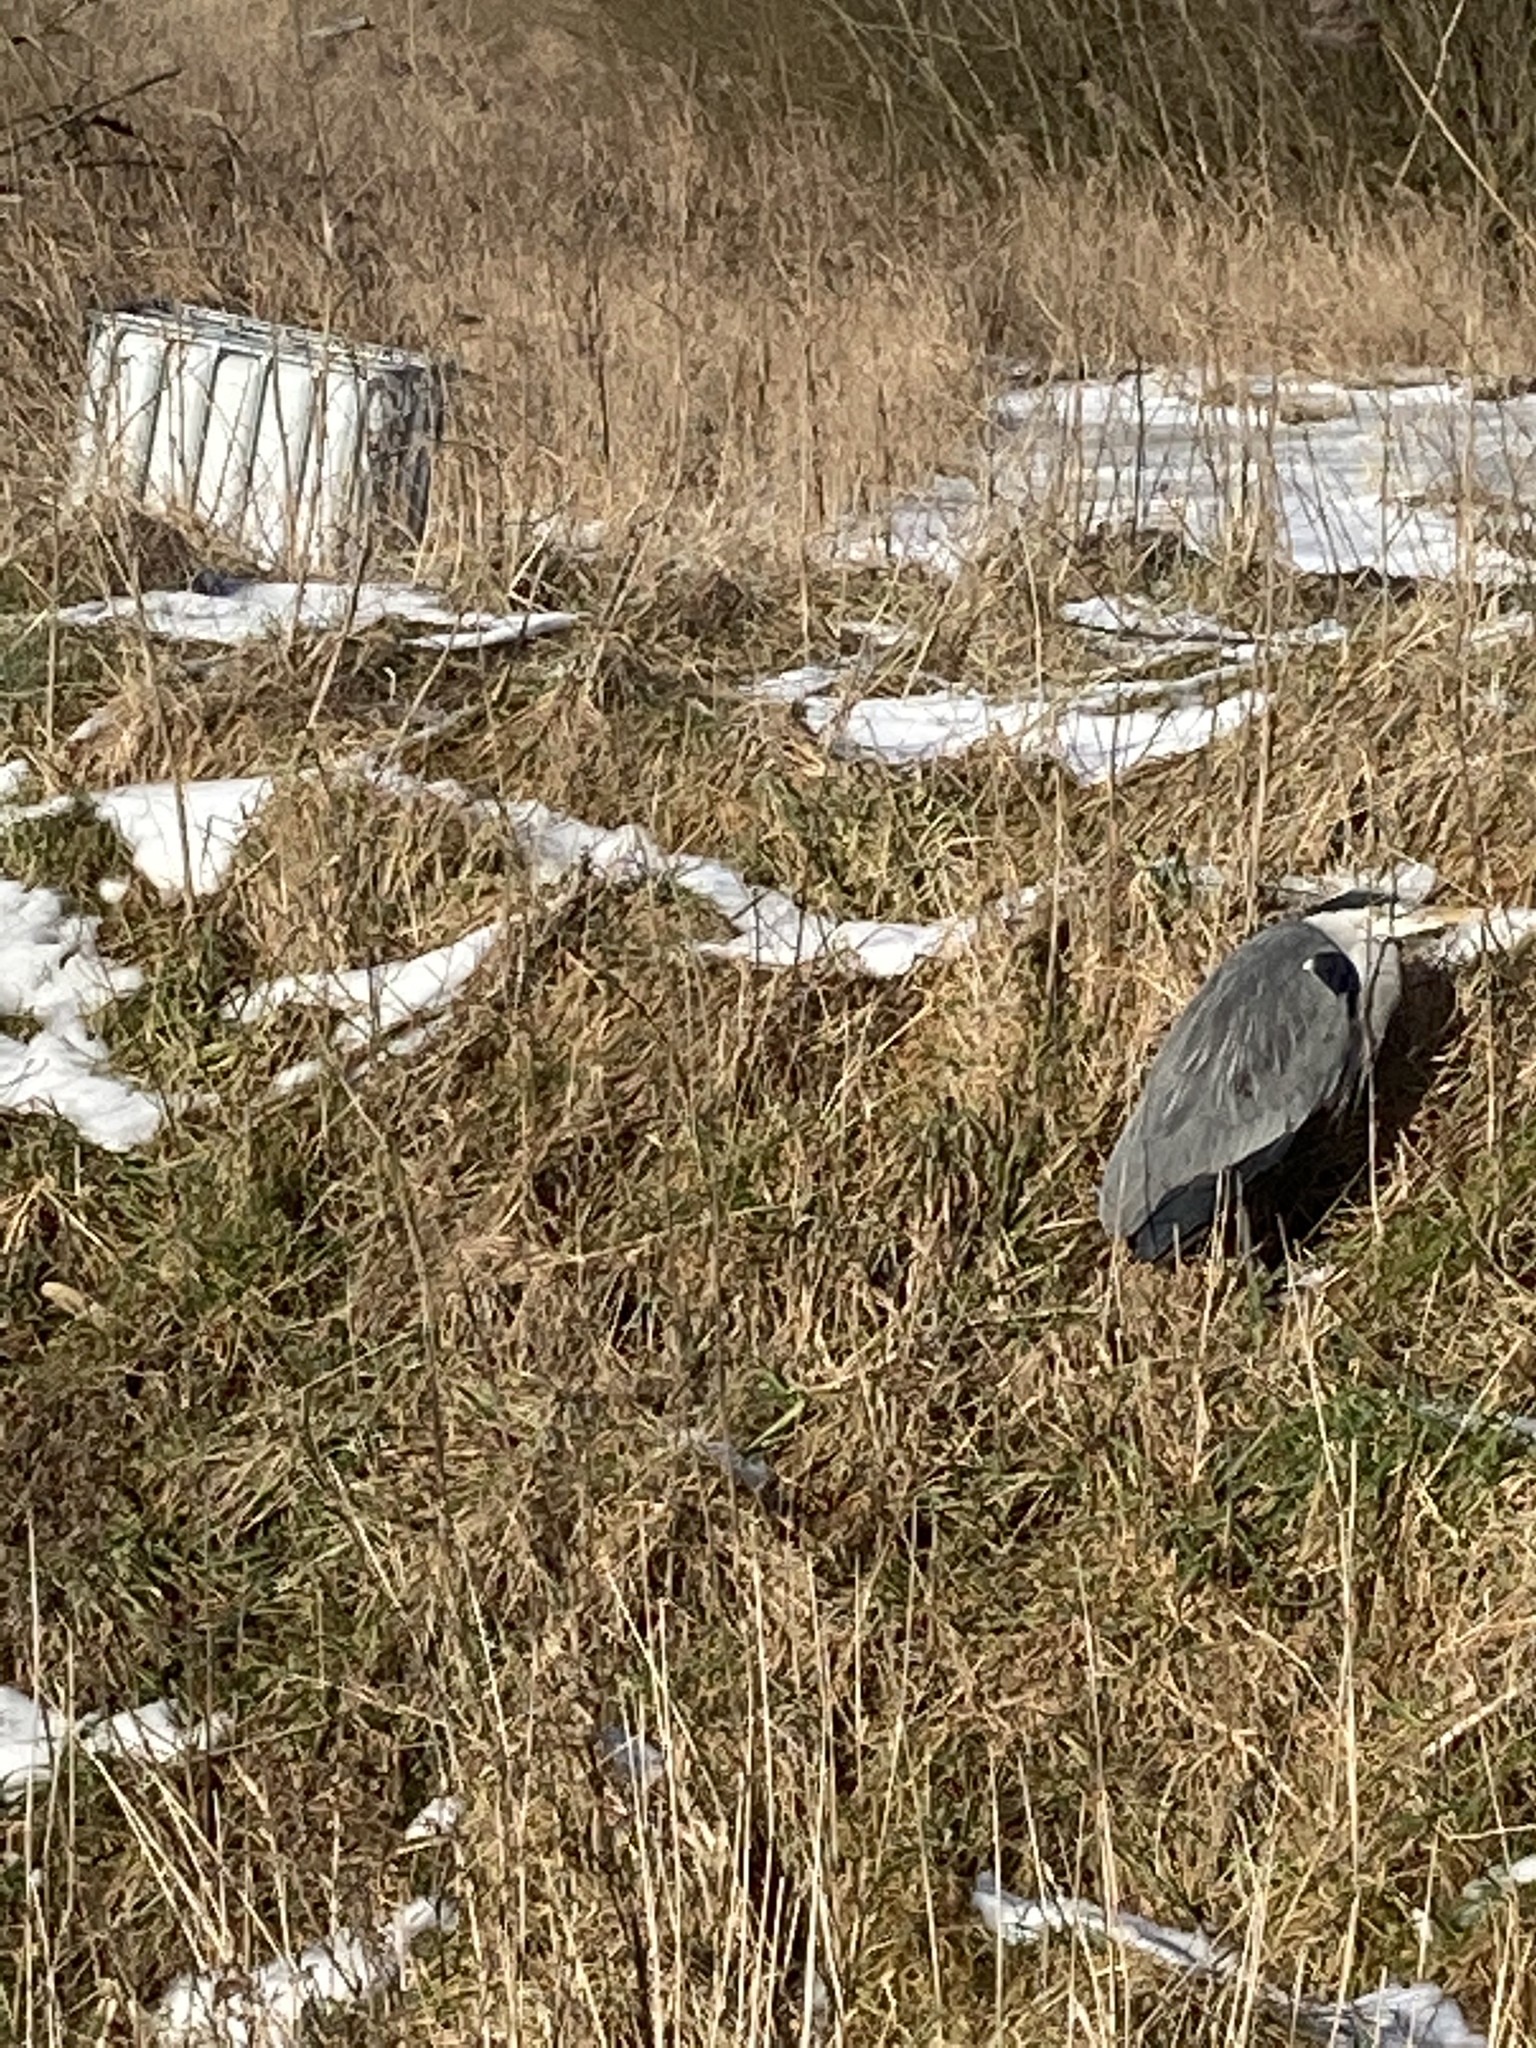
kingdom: Animalia
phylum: Chordata
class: Aves
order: Pelecaniformes
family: Ardeidae
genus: Ardea
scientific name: Ardea cinerea
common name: Grey heron
